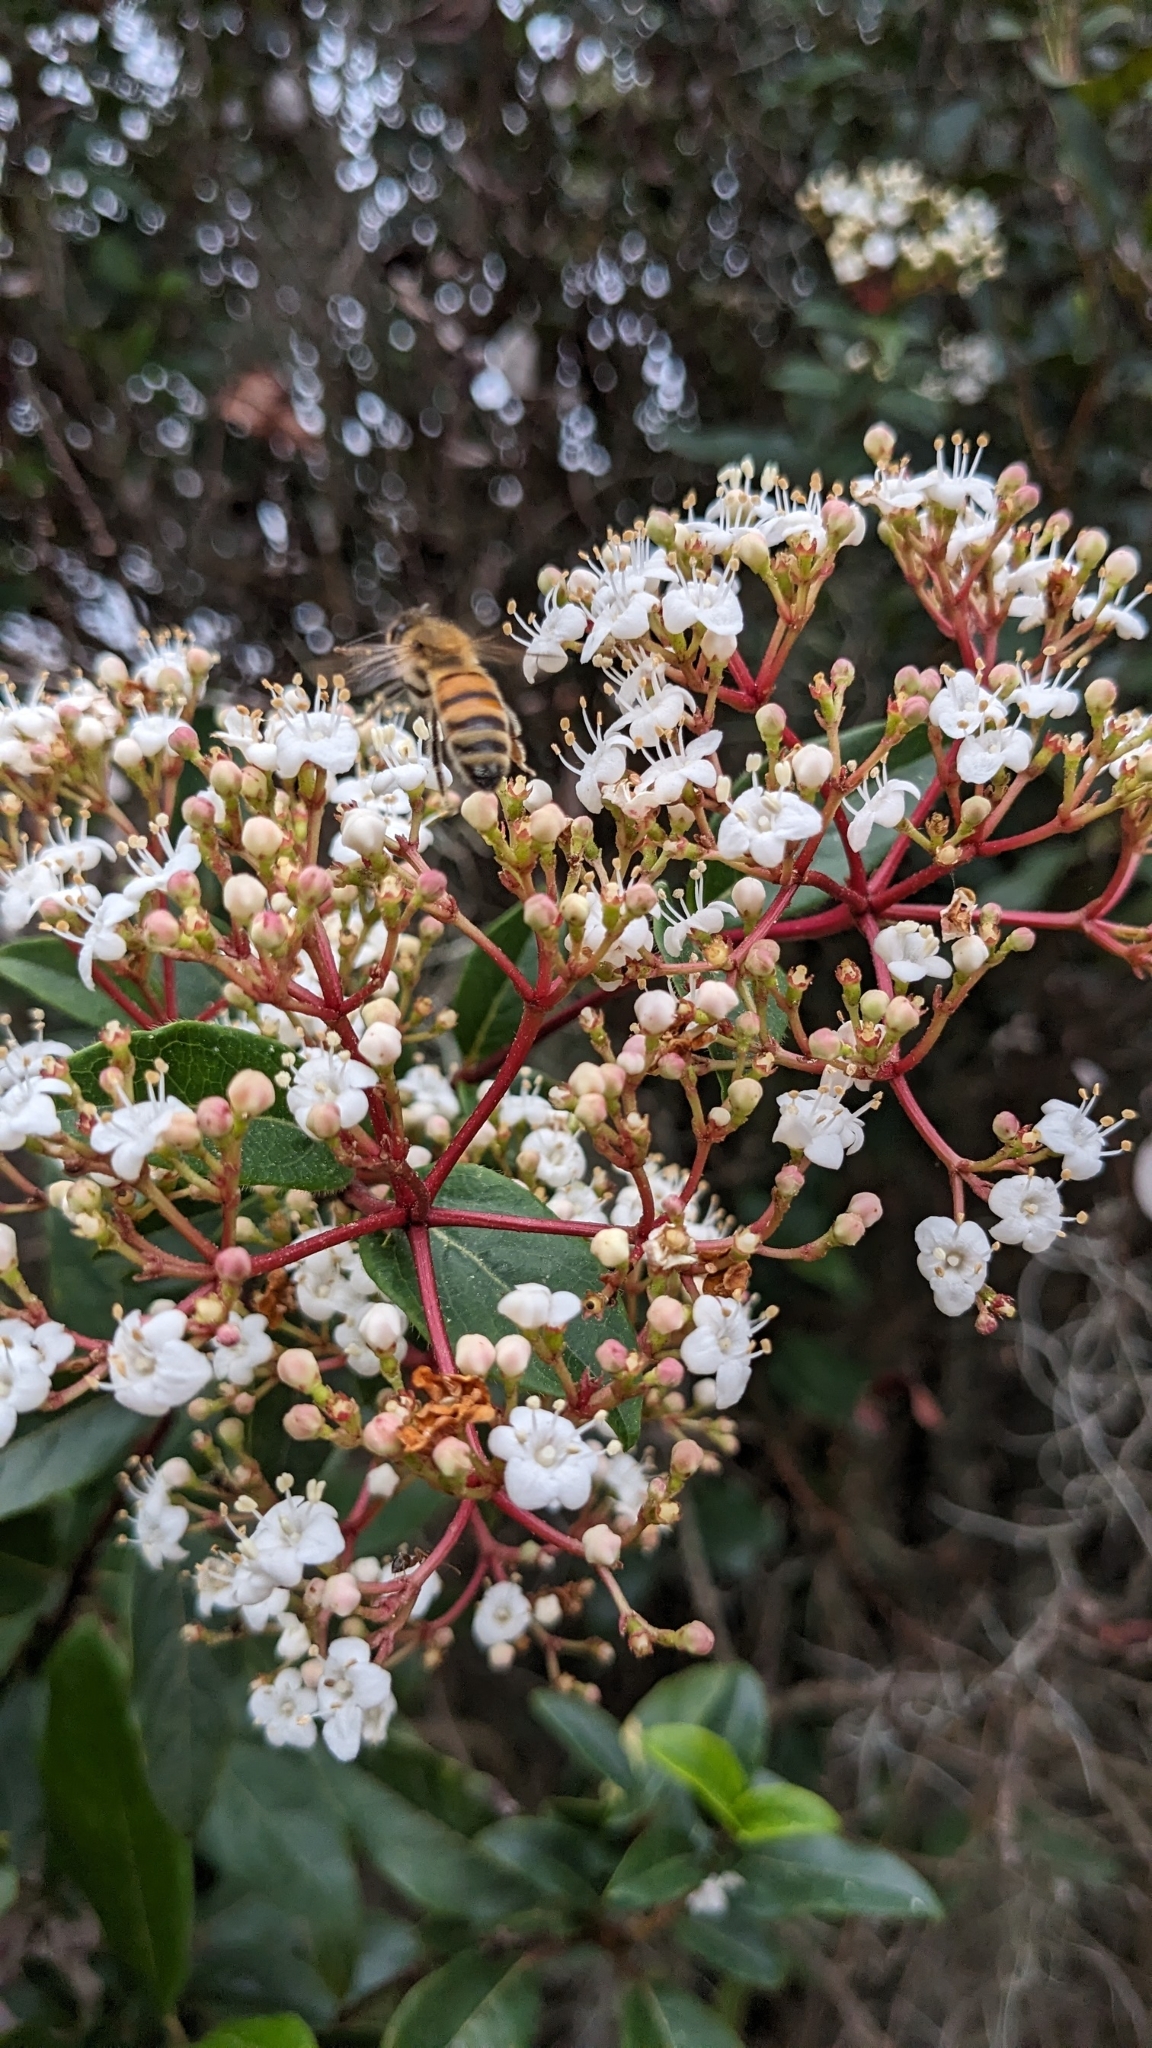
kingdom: Animalia
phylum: Arthropoda
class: Insecta
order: Hymenoptera
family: Apidae
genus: Apis
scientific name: Apis mellifera
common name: Honey bee
